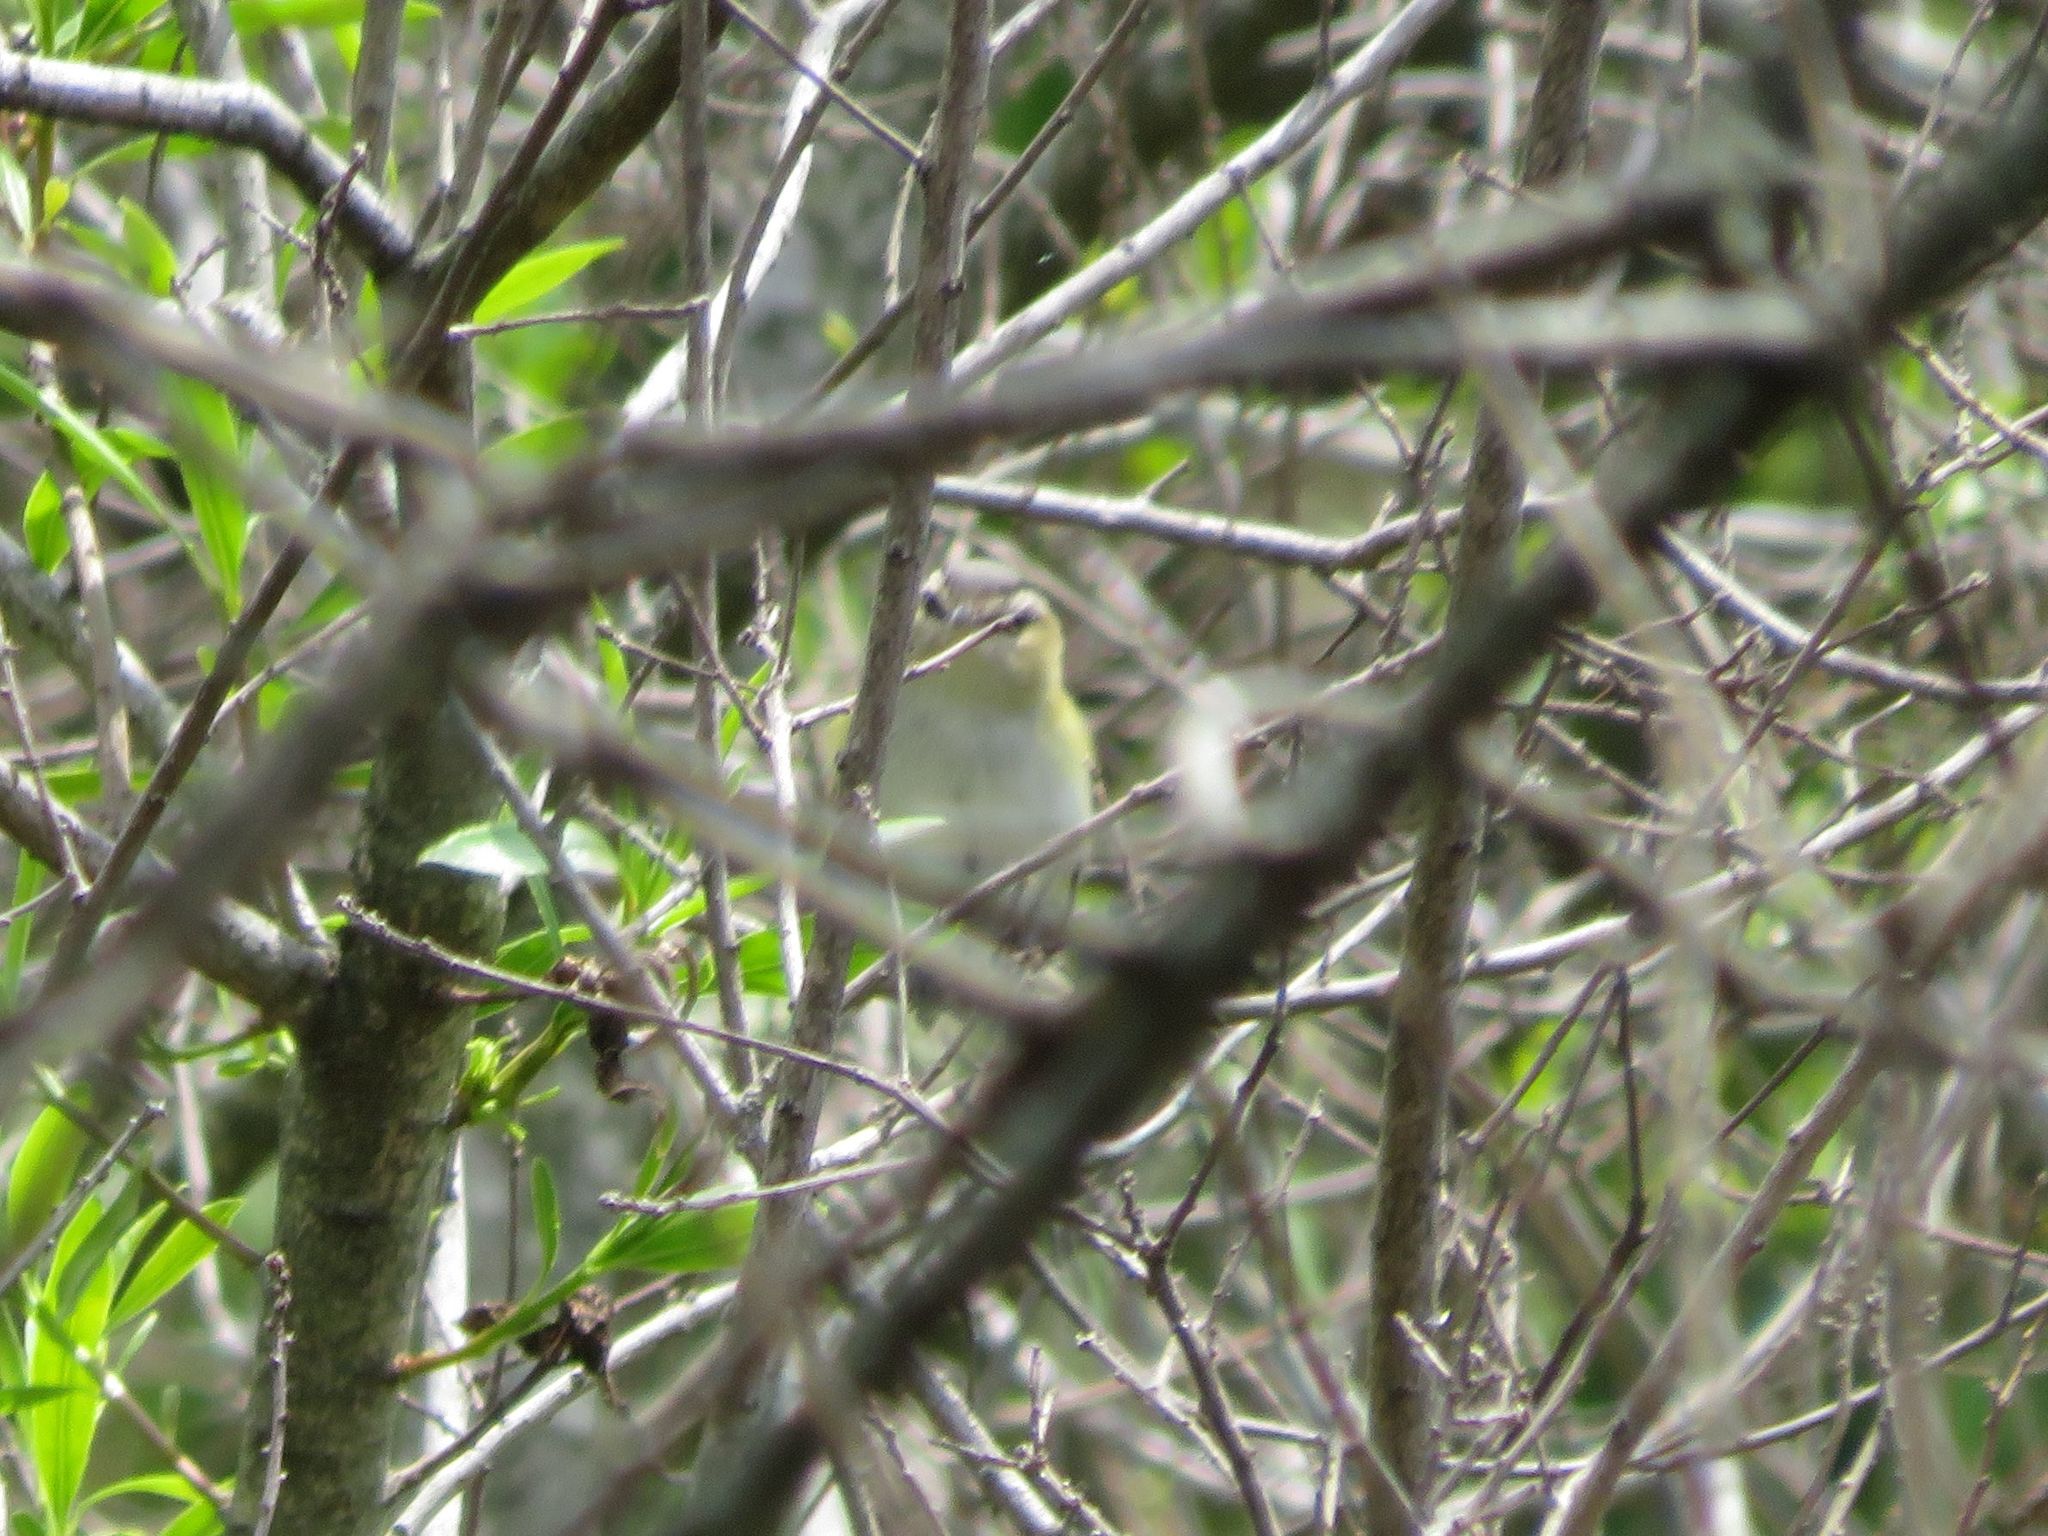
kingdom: Animalia
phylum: Chordata
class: Aves
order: Passeriformes
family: Vireonidae
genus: Vireo
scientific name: Vireo olivaceus
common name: Red-eyed vireo
